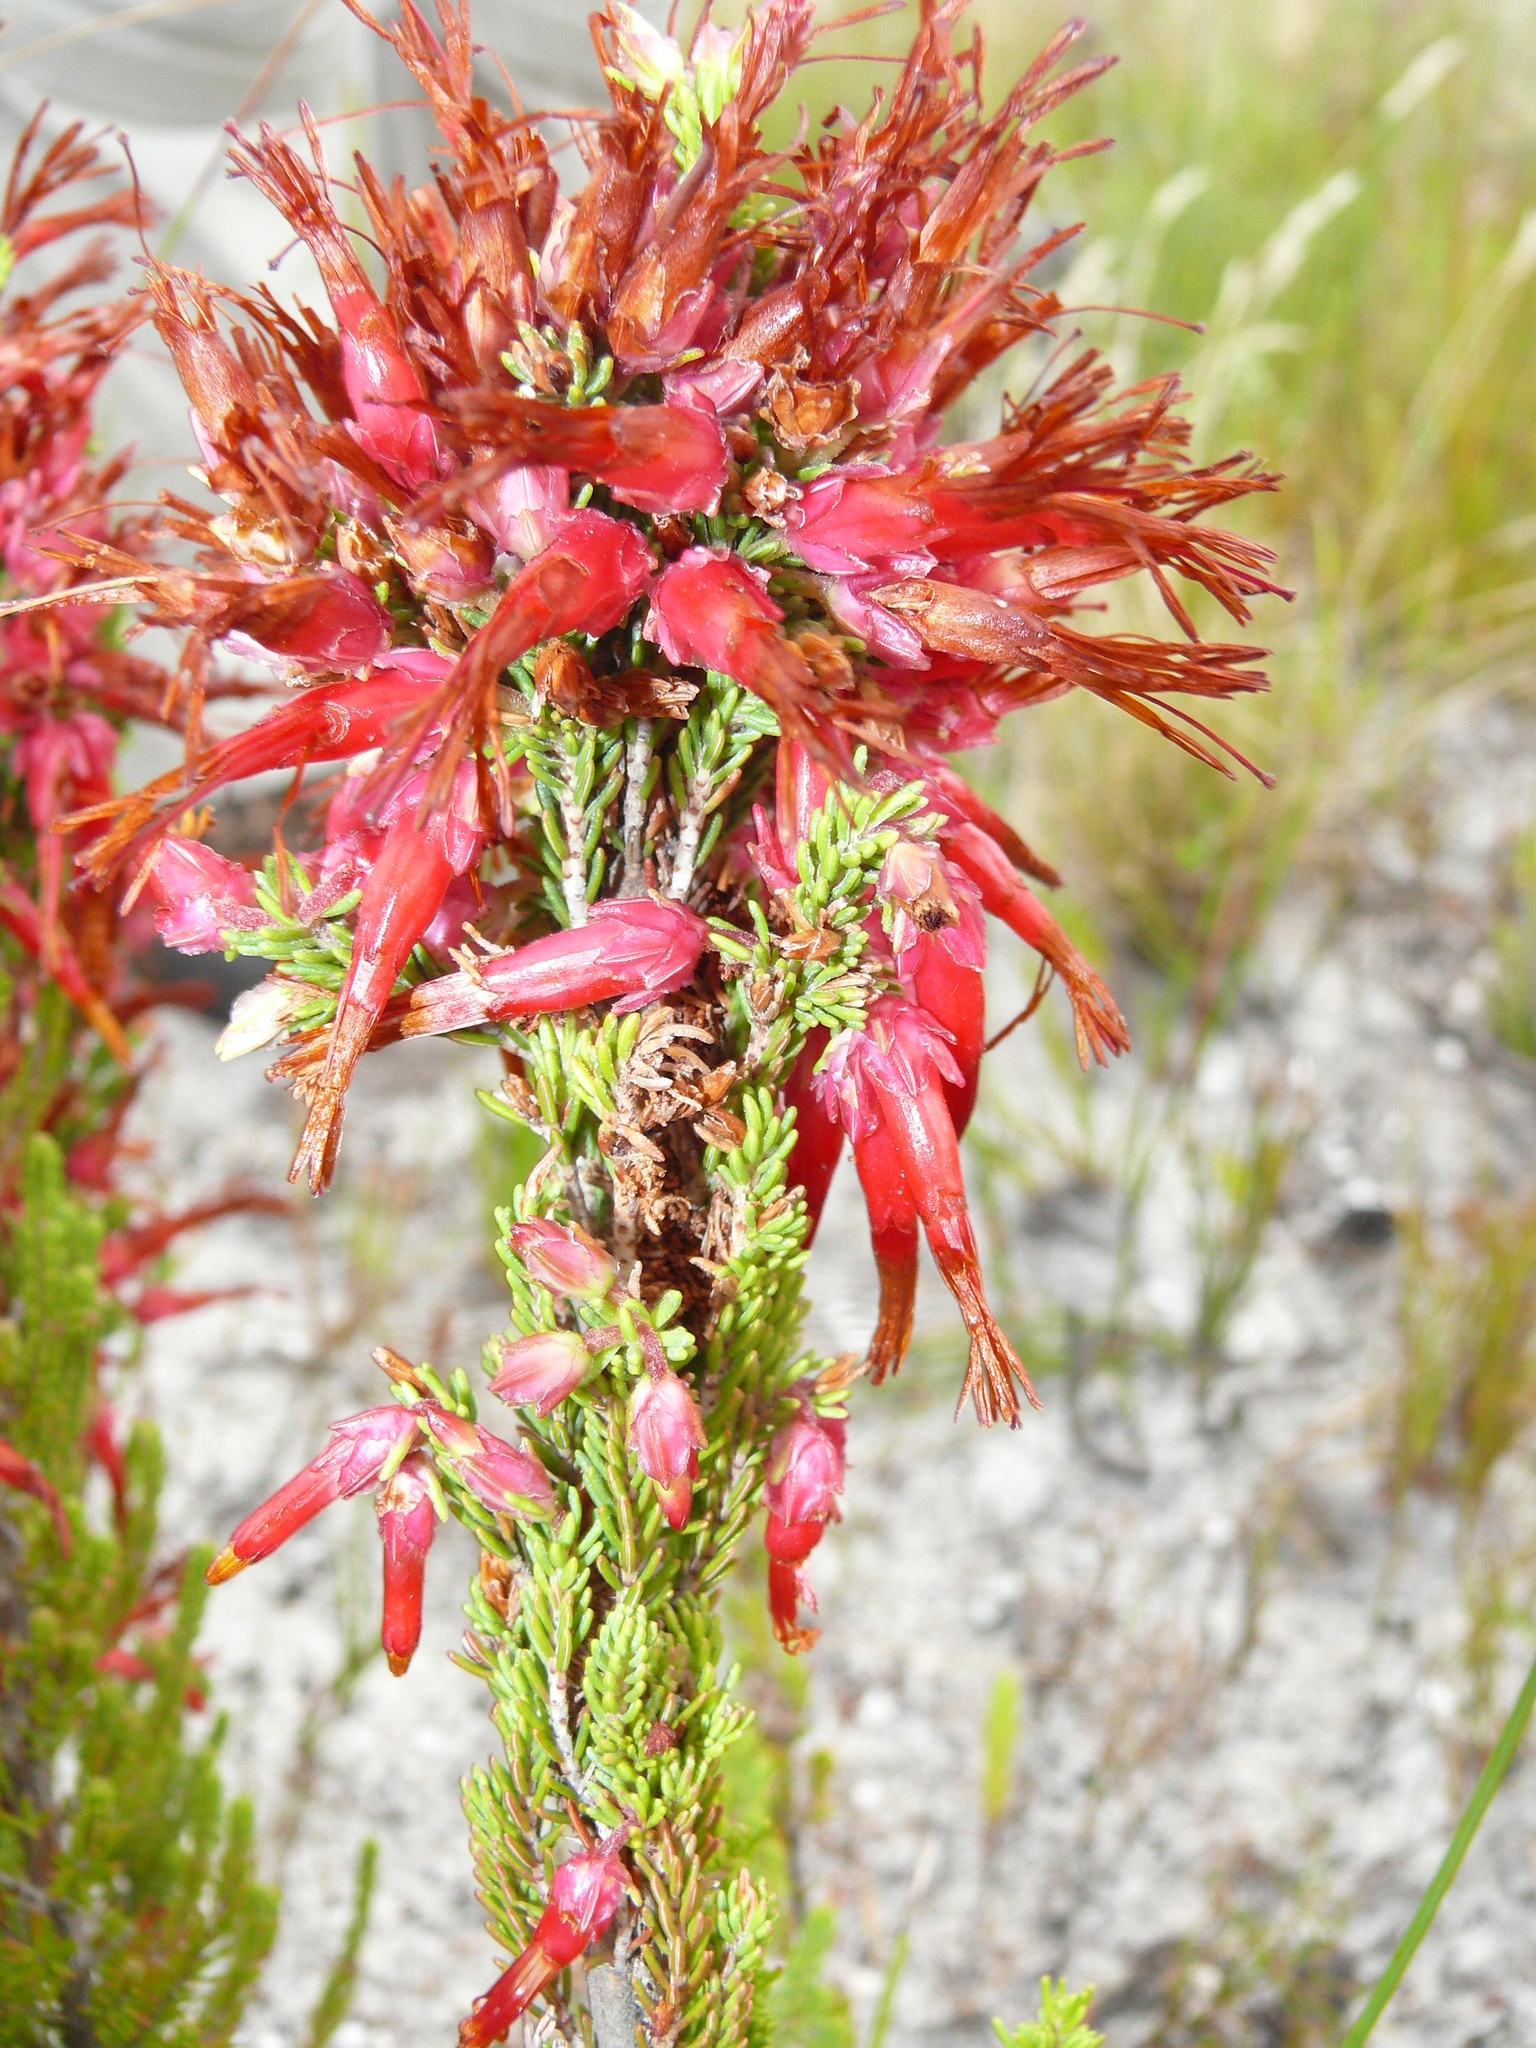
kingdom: Plantae
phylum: Tracheophyta
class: Magnoliopsida
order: Ericales
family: Ericaceae
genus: Erica
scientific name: Erica monadelphia
